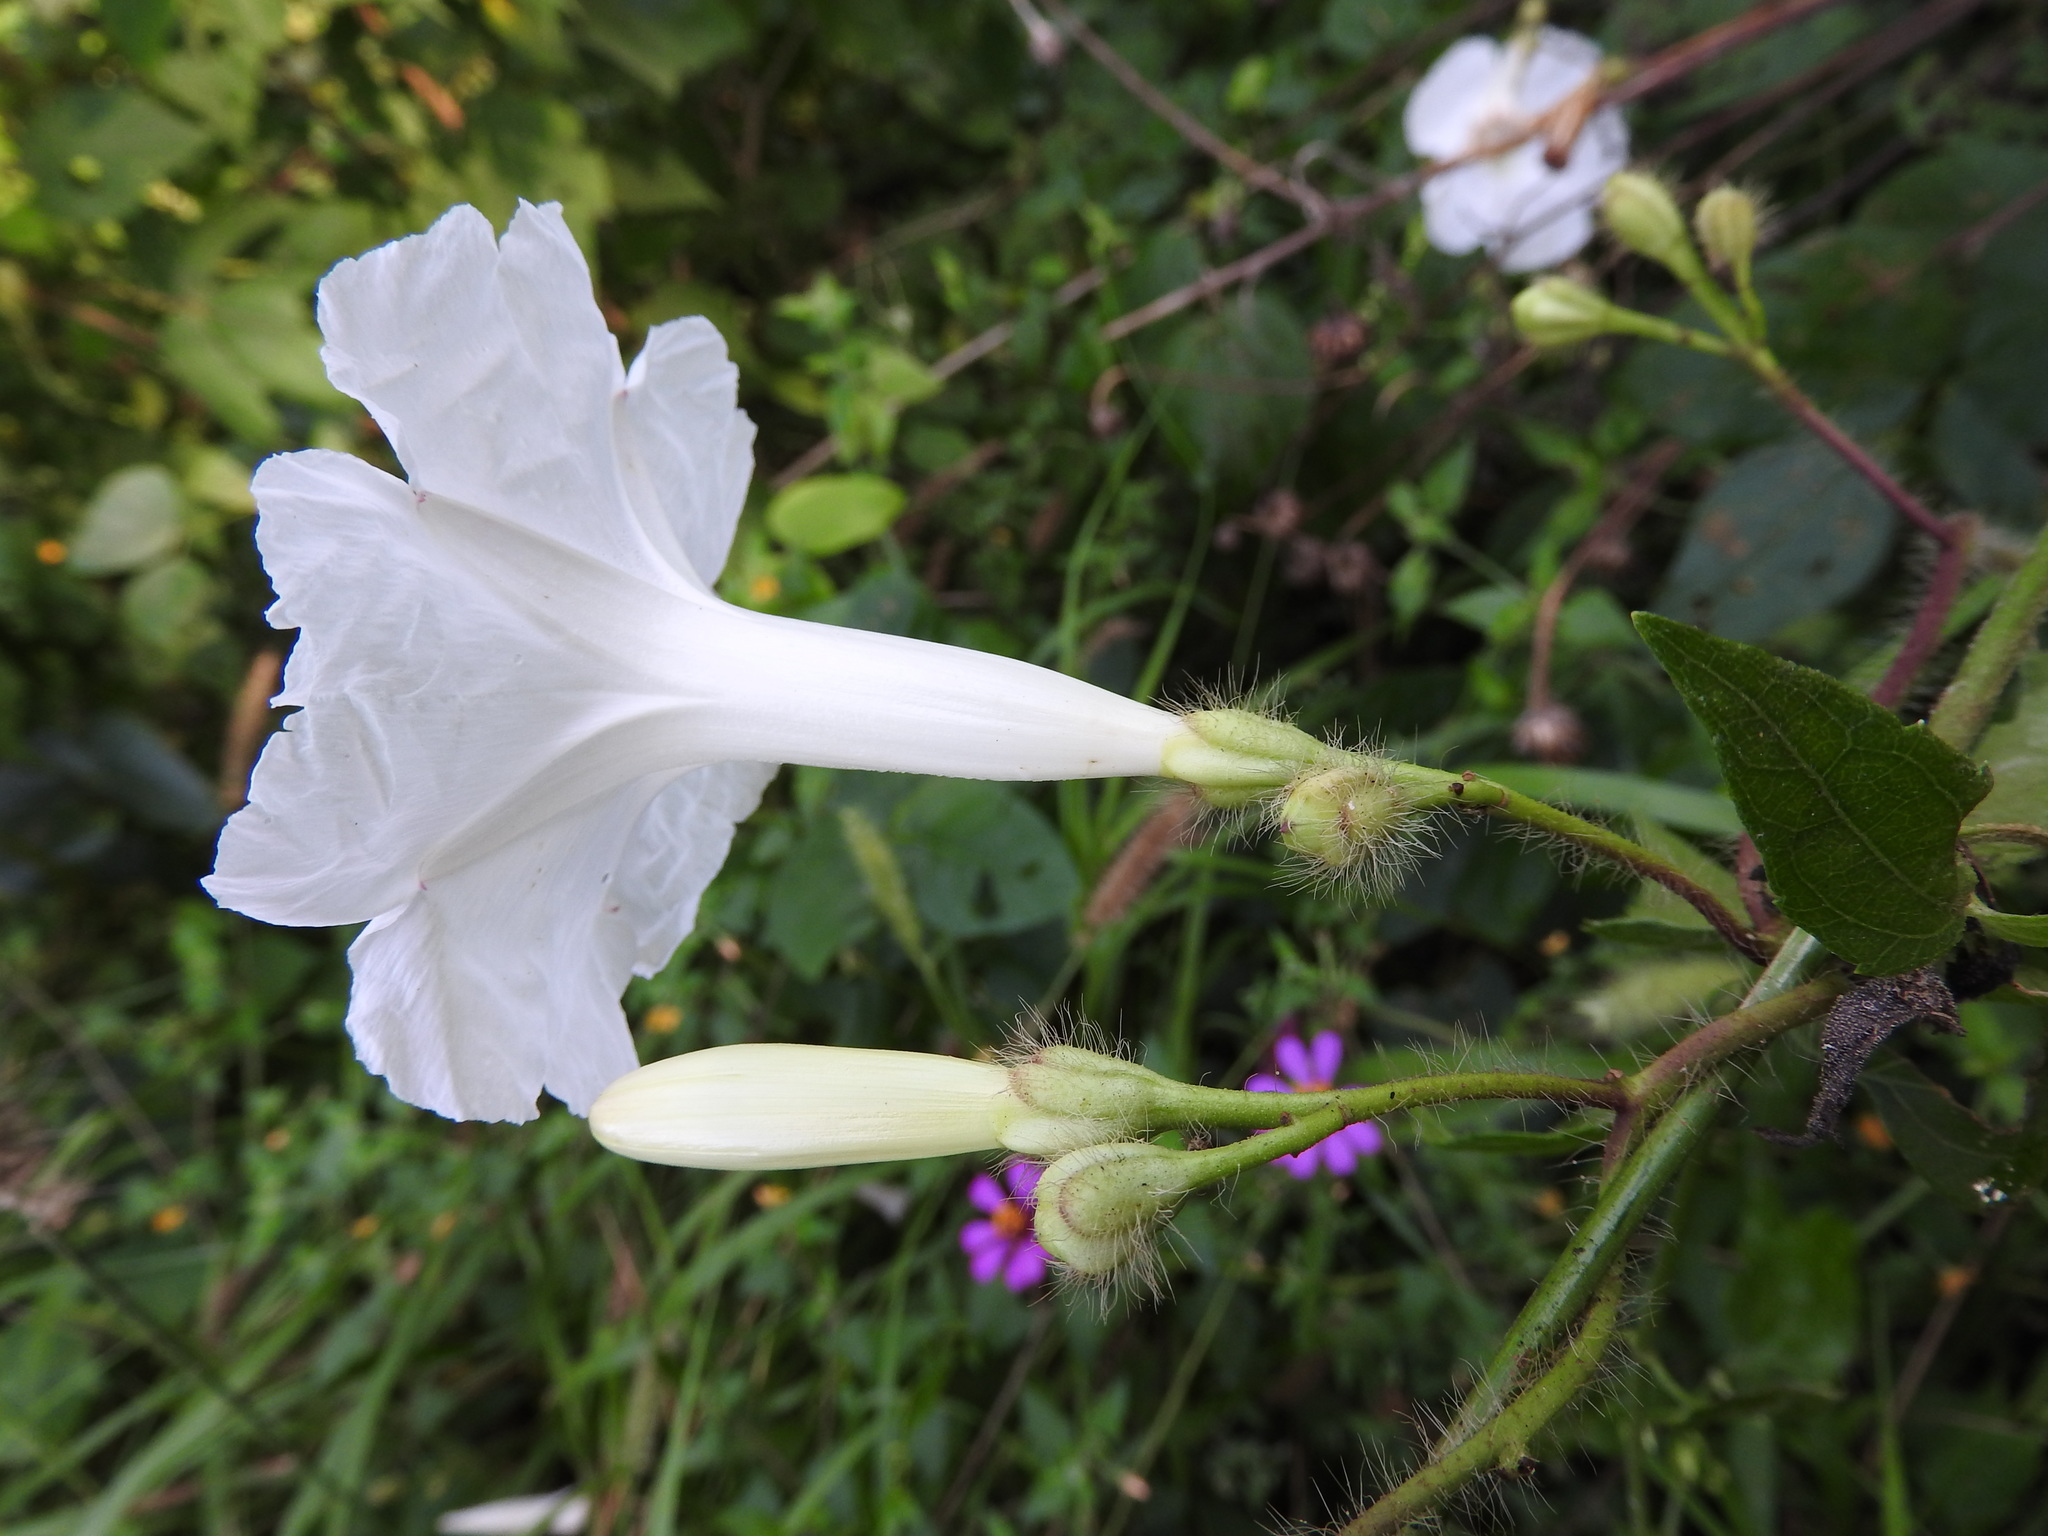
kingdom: Plantae
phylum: Tracheophyta
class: Magnoliopsida
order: Solanales
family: Convolvulaceae
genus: Ipomoea
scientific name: Ipomoea suaveolens
